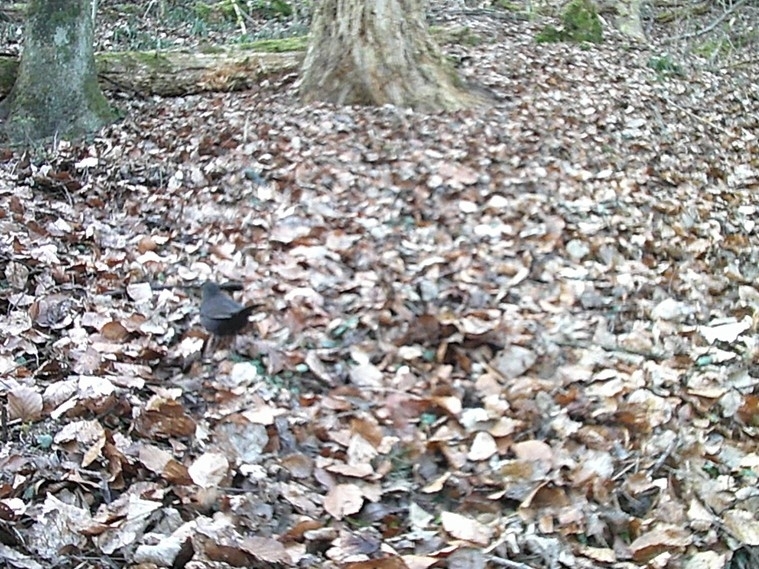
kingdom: Animalia
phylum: Chordata
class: Aves
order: Passeriformes
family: Turdidae
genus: Turdus
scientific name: Turdus merula
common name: Common blackbird
